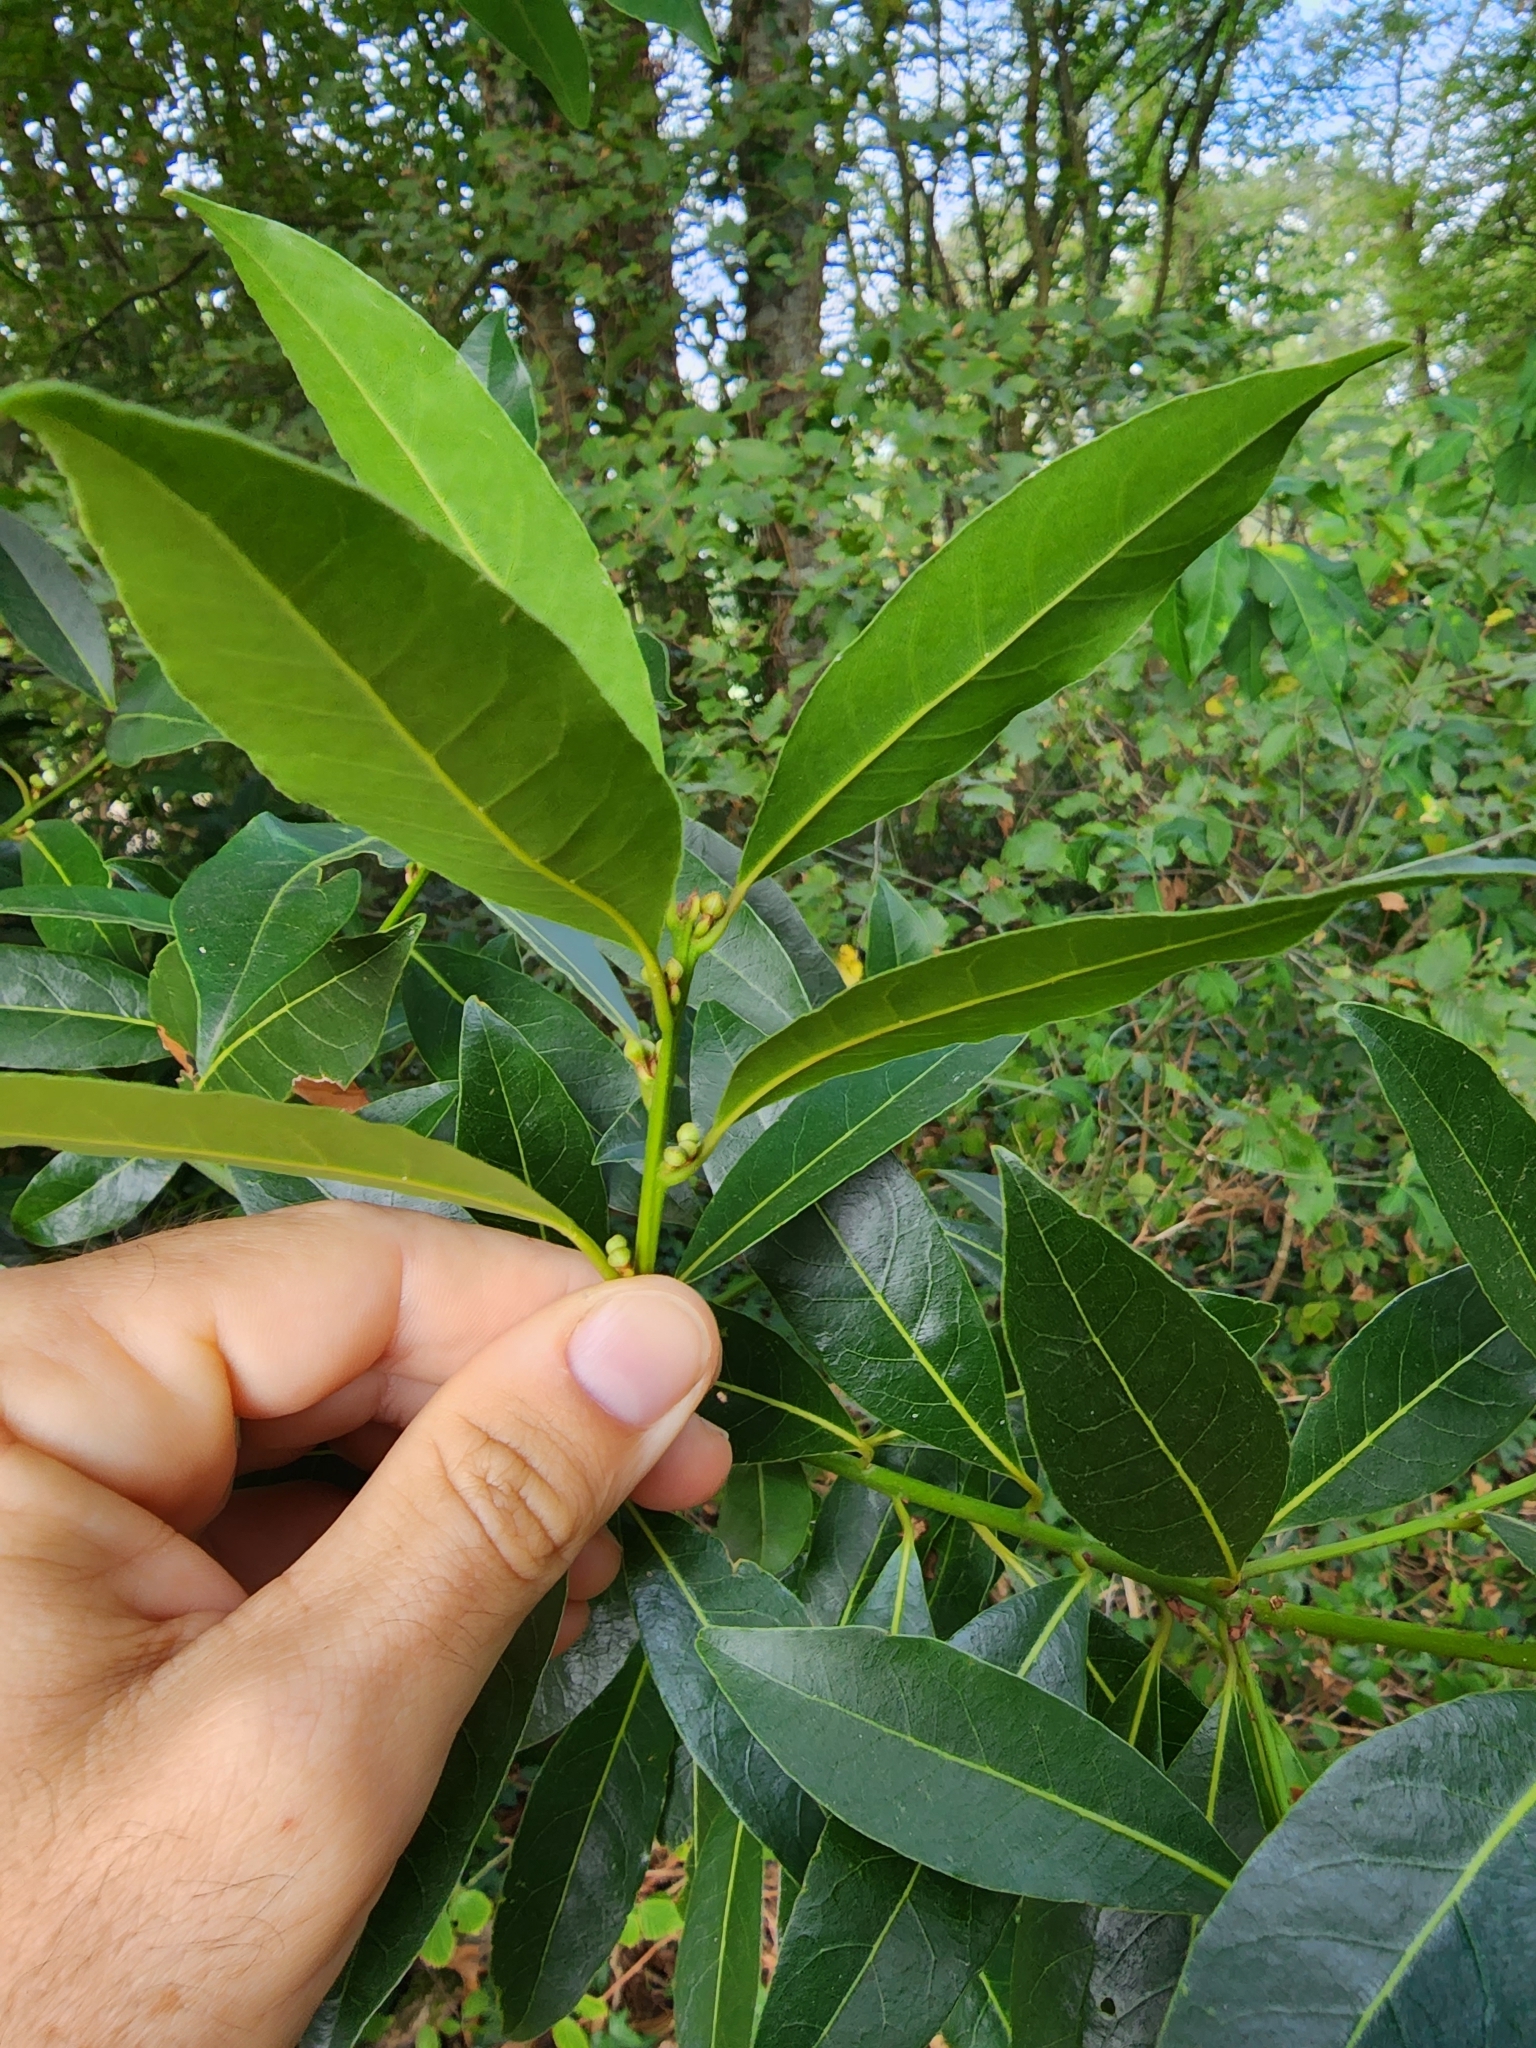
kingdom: Plantae
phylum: Tracheophyta
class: Magnoliopsida
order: Laurales
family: Lauraceae
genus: Laurus
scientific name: Laurus nobilis
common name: Bay
